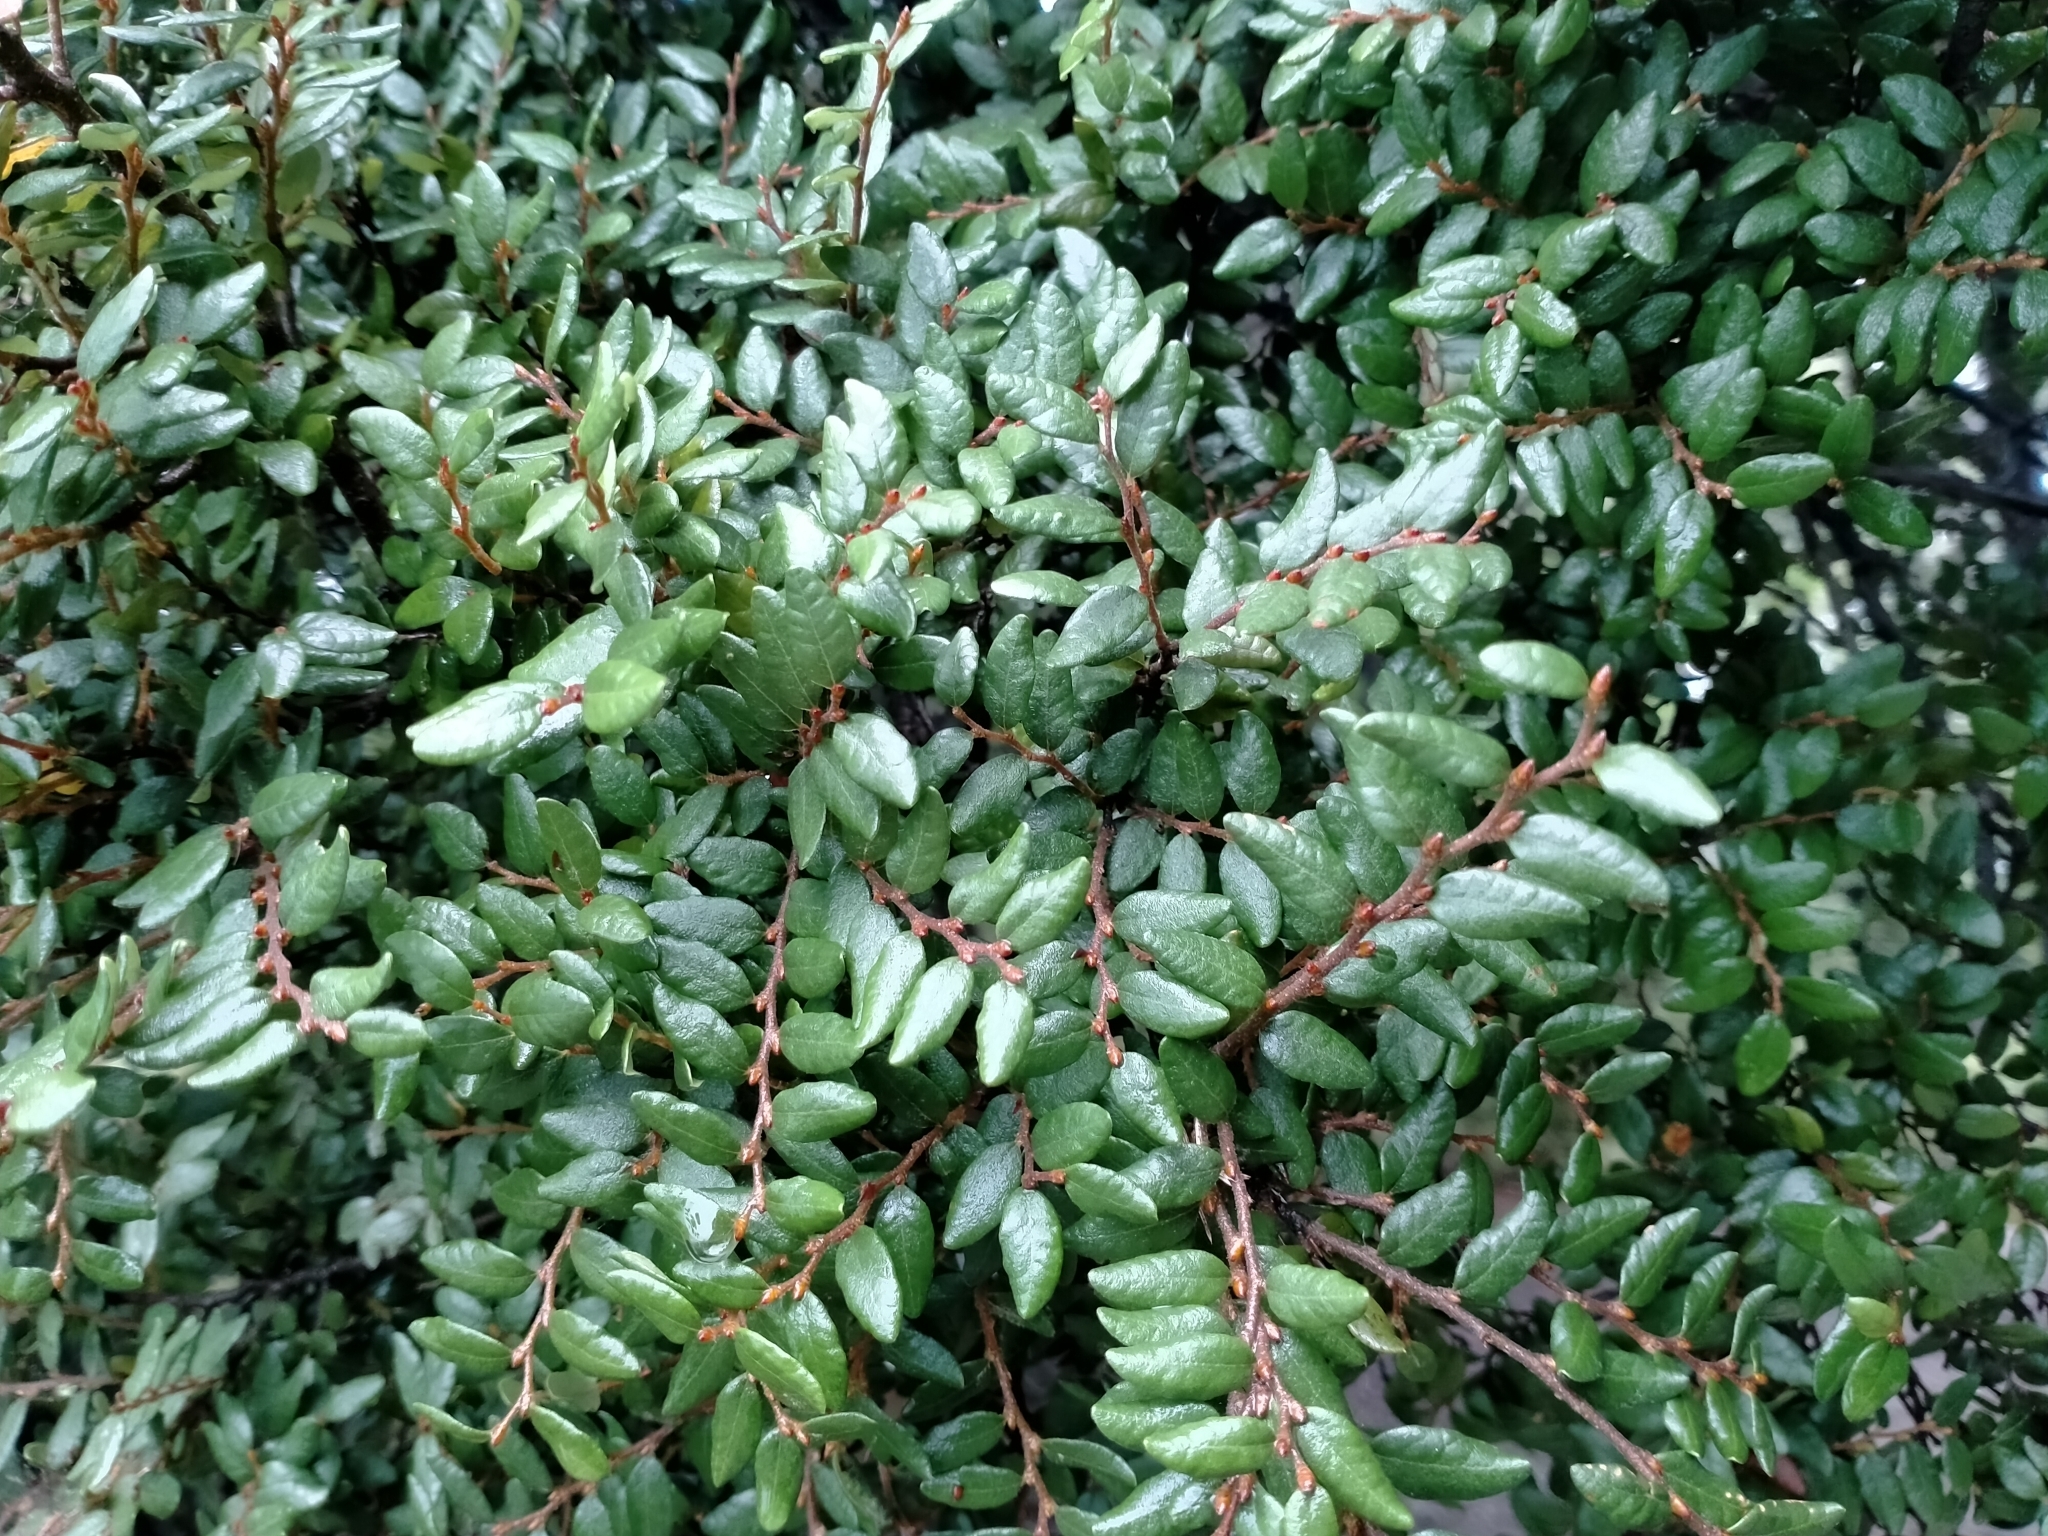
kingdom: Plantae
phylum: Tracheophyta
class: Magnoliopsida
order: Fagales
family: Nothofagaceae
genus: Nothofagus
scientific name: Nothofagus cliffortioides
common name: Mountain beech
